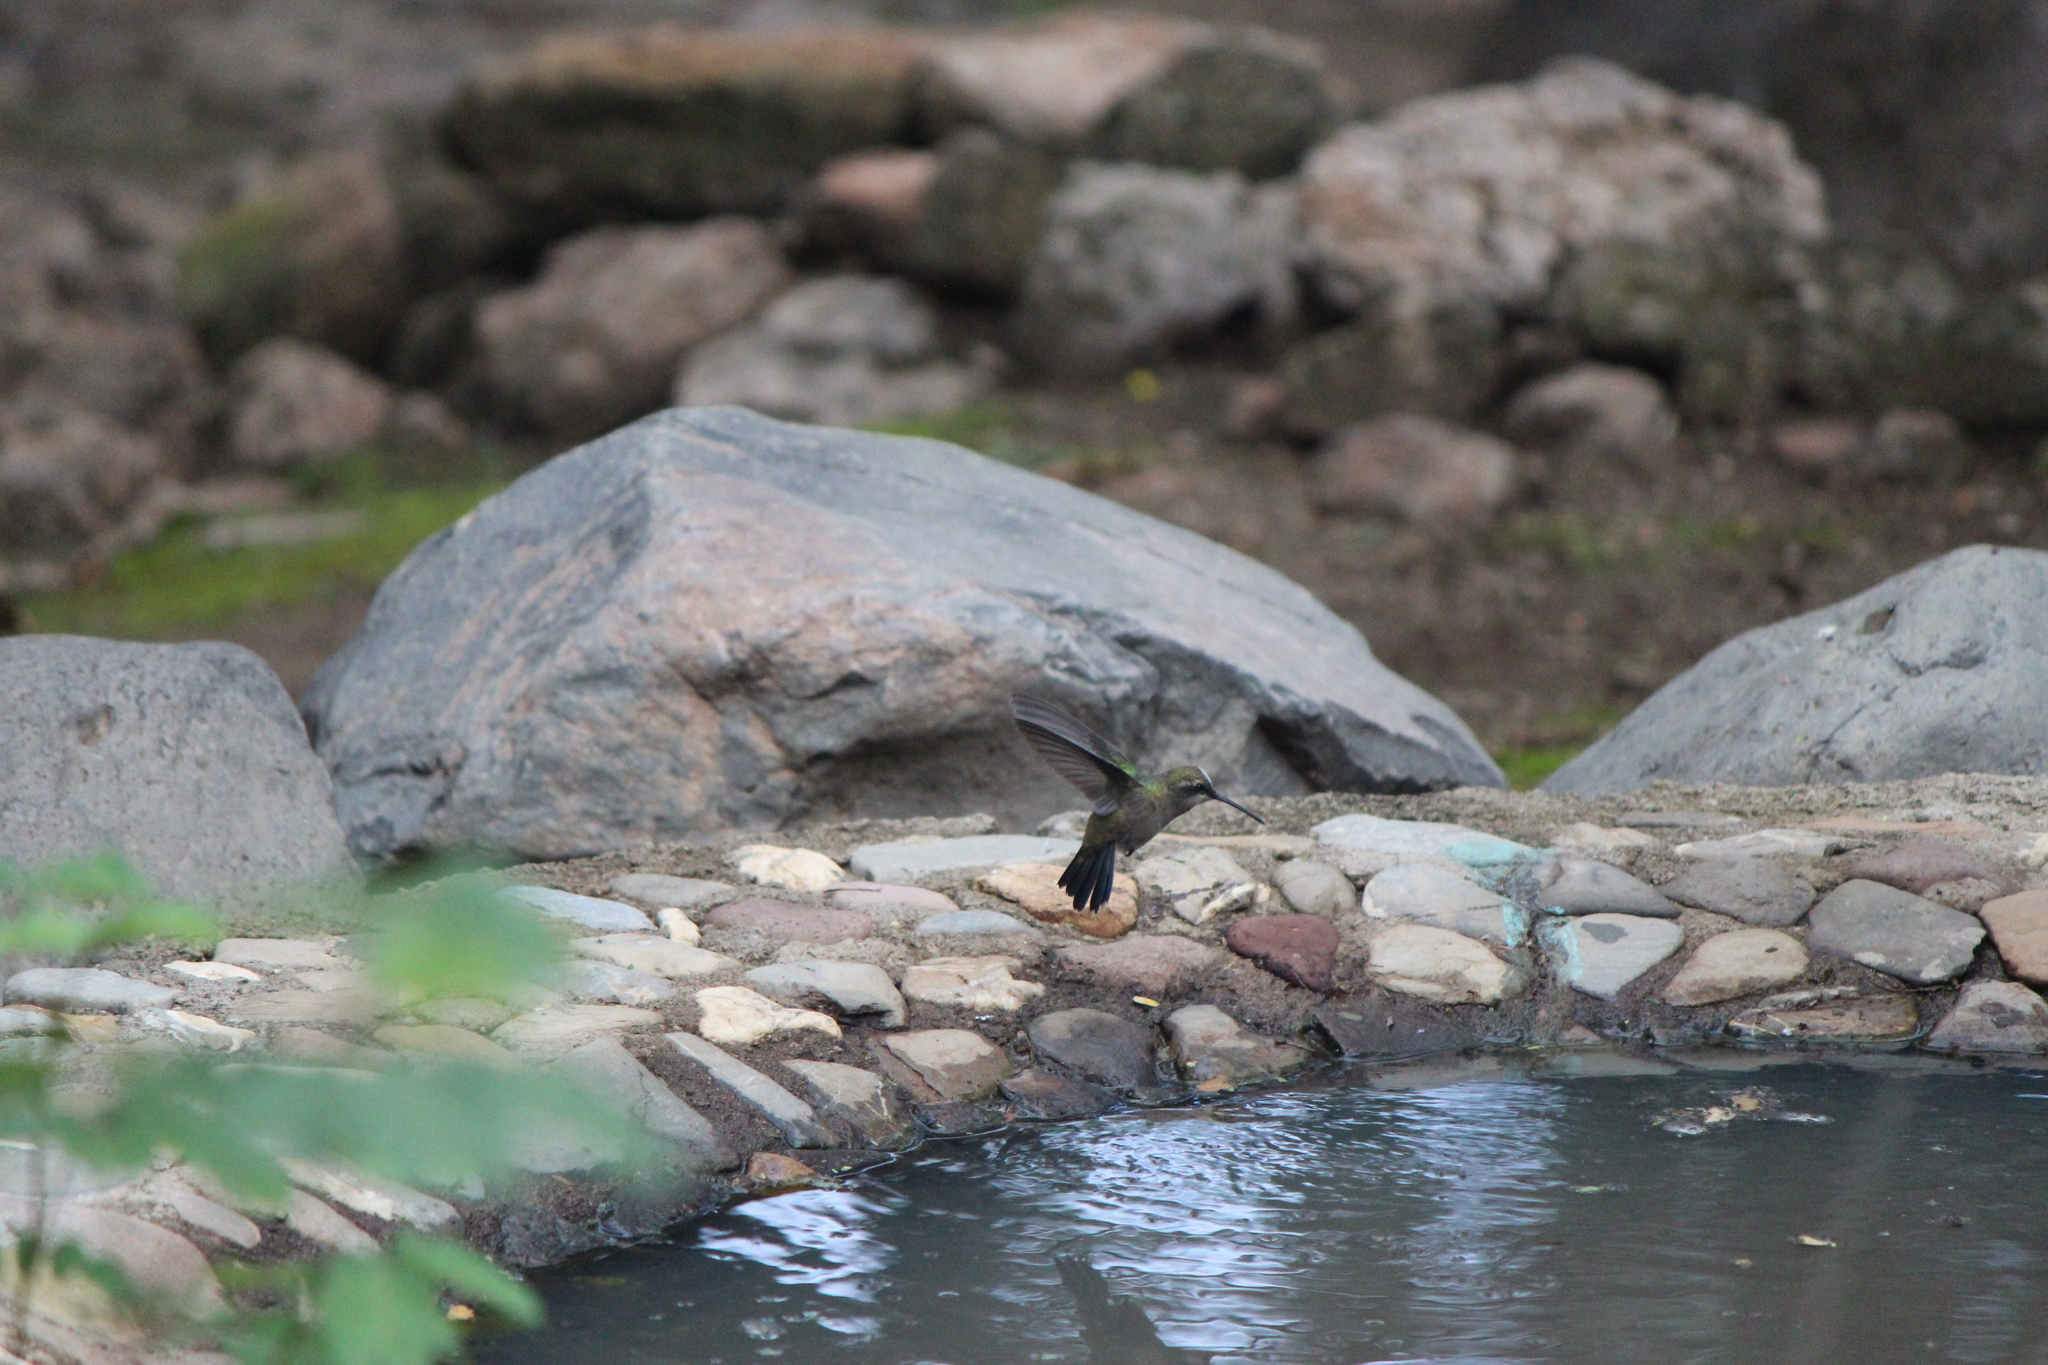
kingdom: Animalia
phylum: Chordata
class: Aves
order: Apodiformes
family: Trochilidae
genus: Cynanthus
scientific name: Cynanthus latirostris
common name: Broad-billed hummingbird
